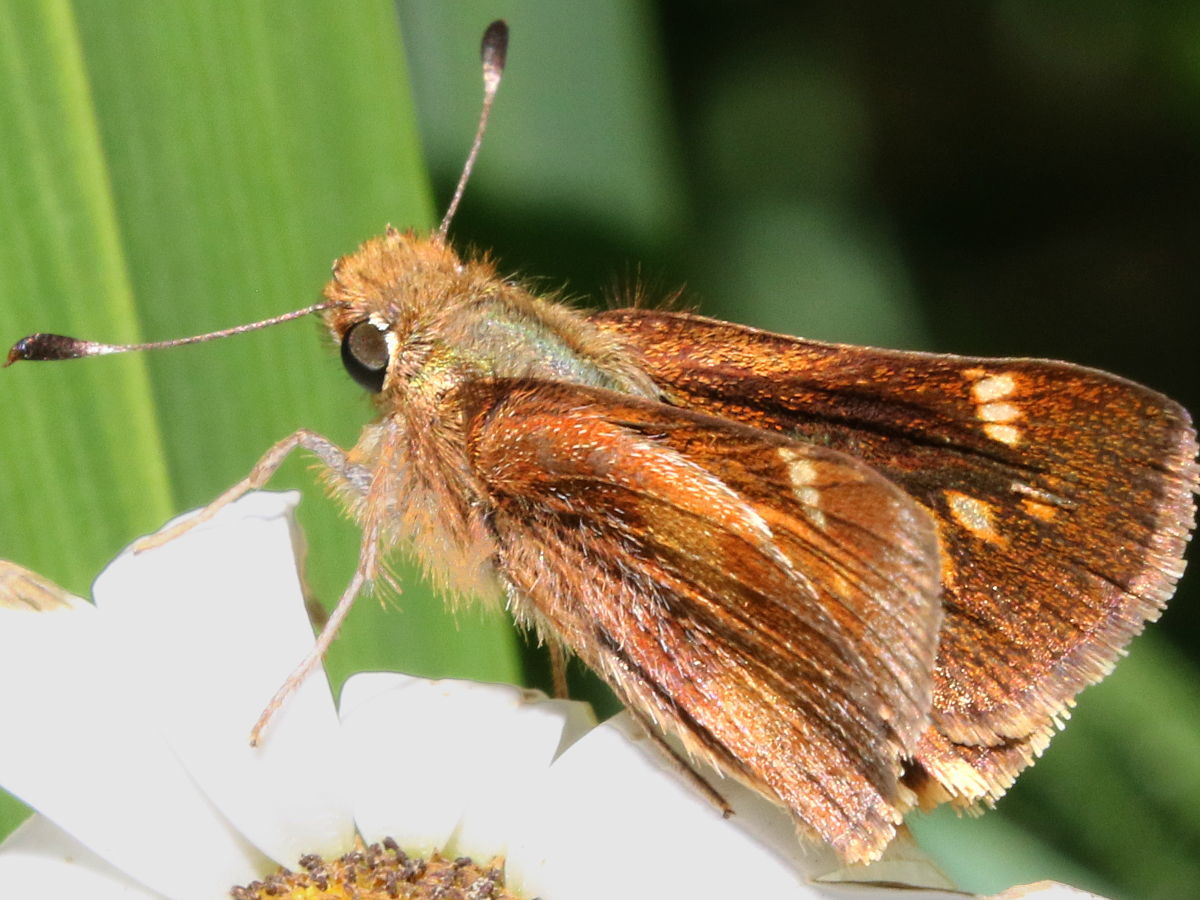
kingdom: Animalia
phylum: Arthropoda
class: Insecta
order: Lepidoptera
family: Hesperiidae
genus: Lon
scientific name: Lon melane
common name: Umber skipper
